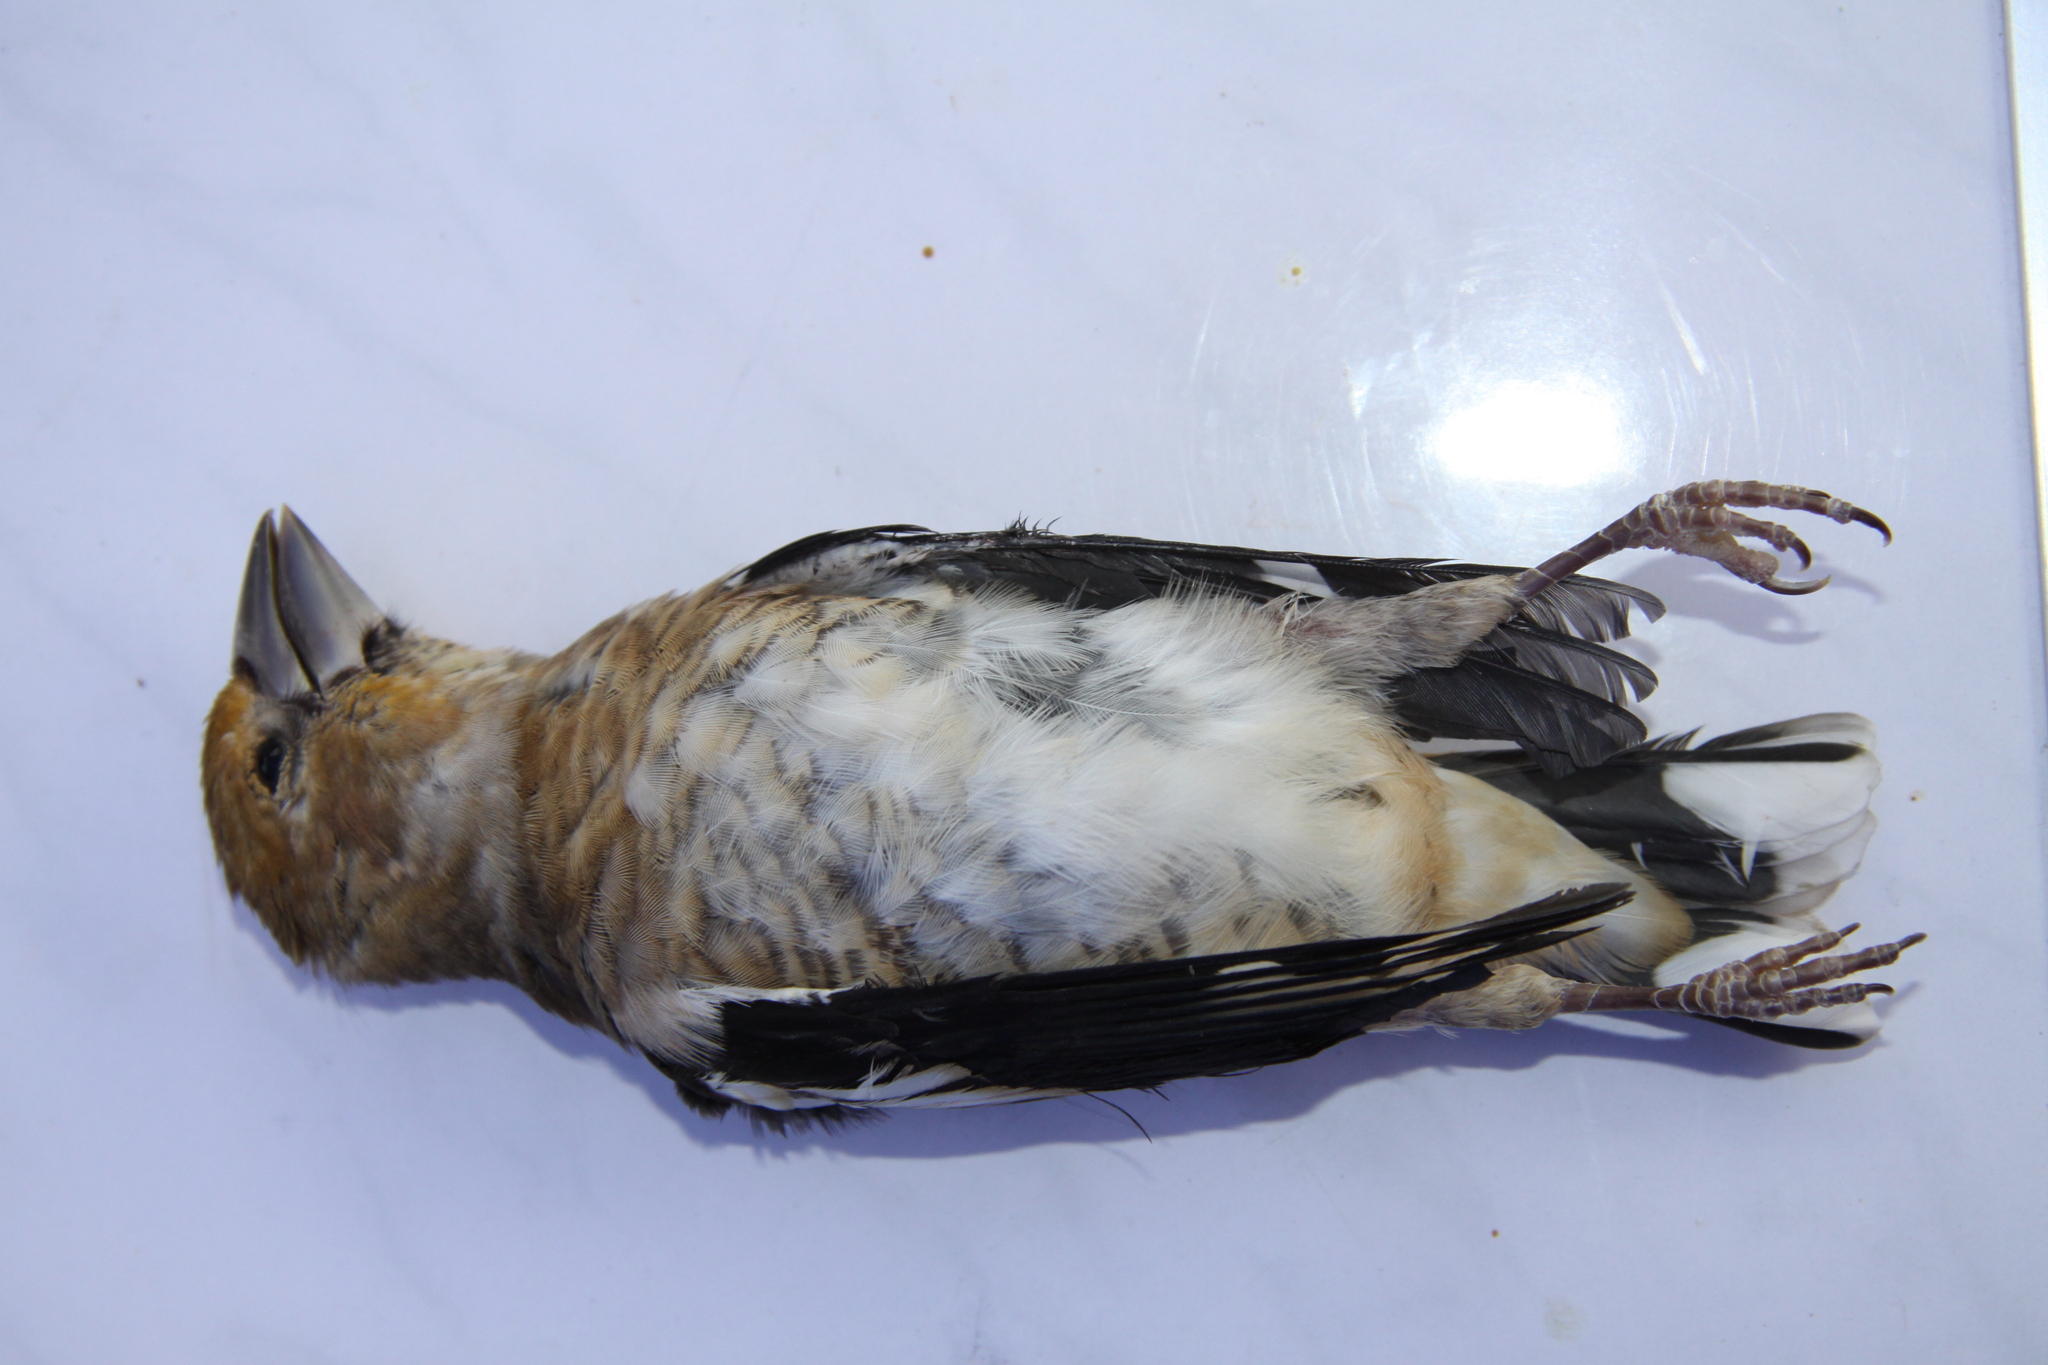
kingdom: Animalia
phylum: Chordata
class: Aves
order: Passeriformes
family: Fringillidae
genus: Coccothraustes
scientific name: Coccothraustes coccothraustes
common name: Hawfinch
